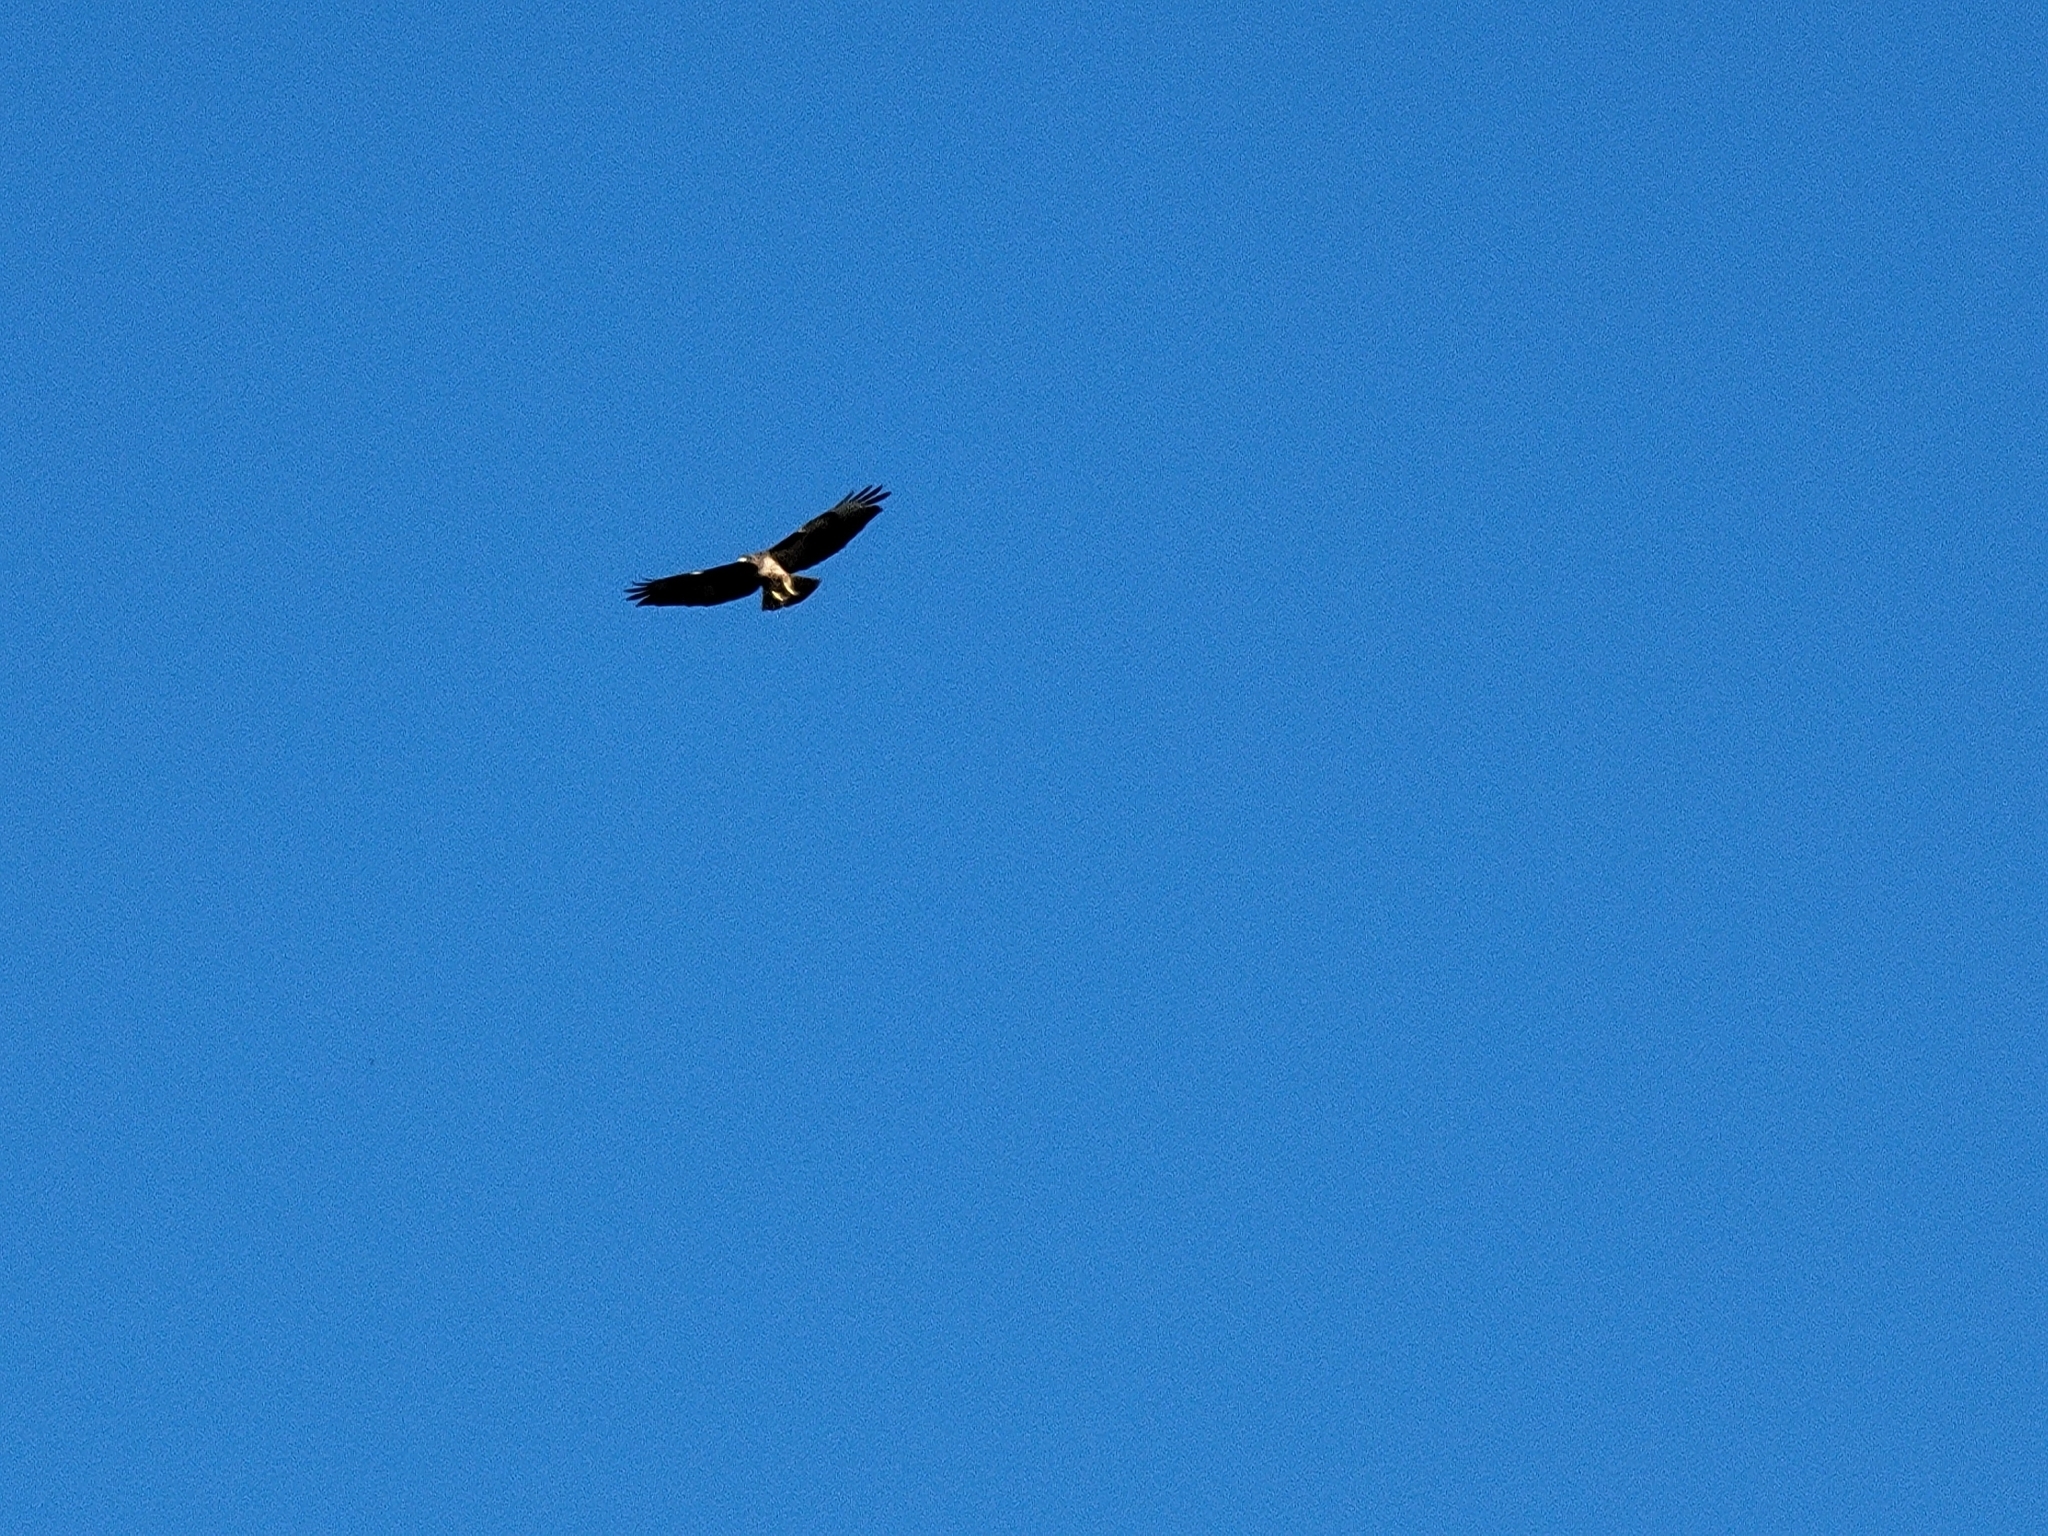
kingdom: Animalia
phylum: Chordata
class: Aves
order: Accipitriformes
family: Accipitridae
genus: Buteo
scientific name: Buteo jamaicensis
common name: Red-tailed hawk
